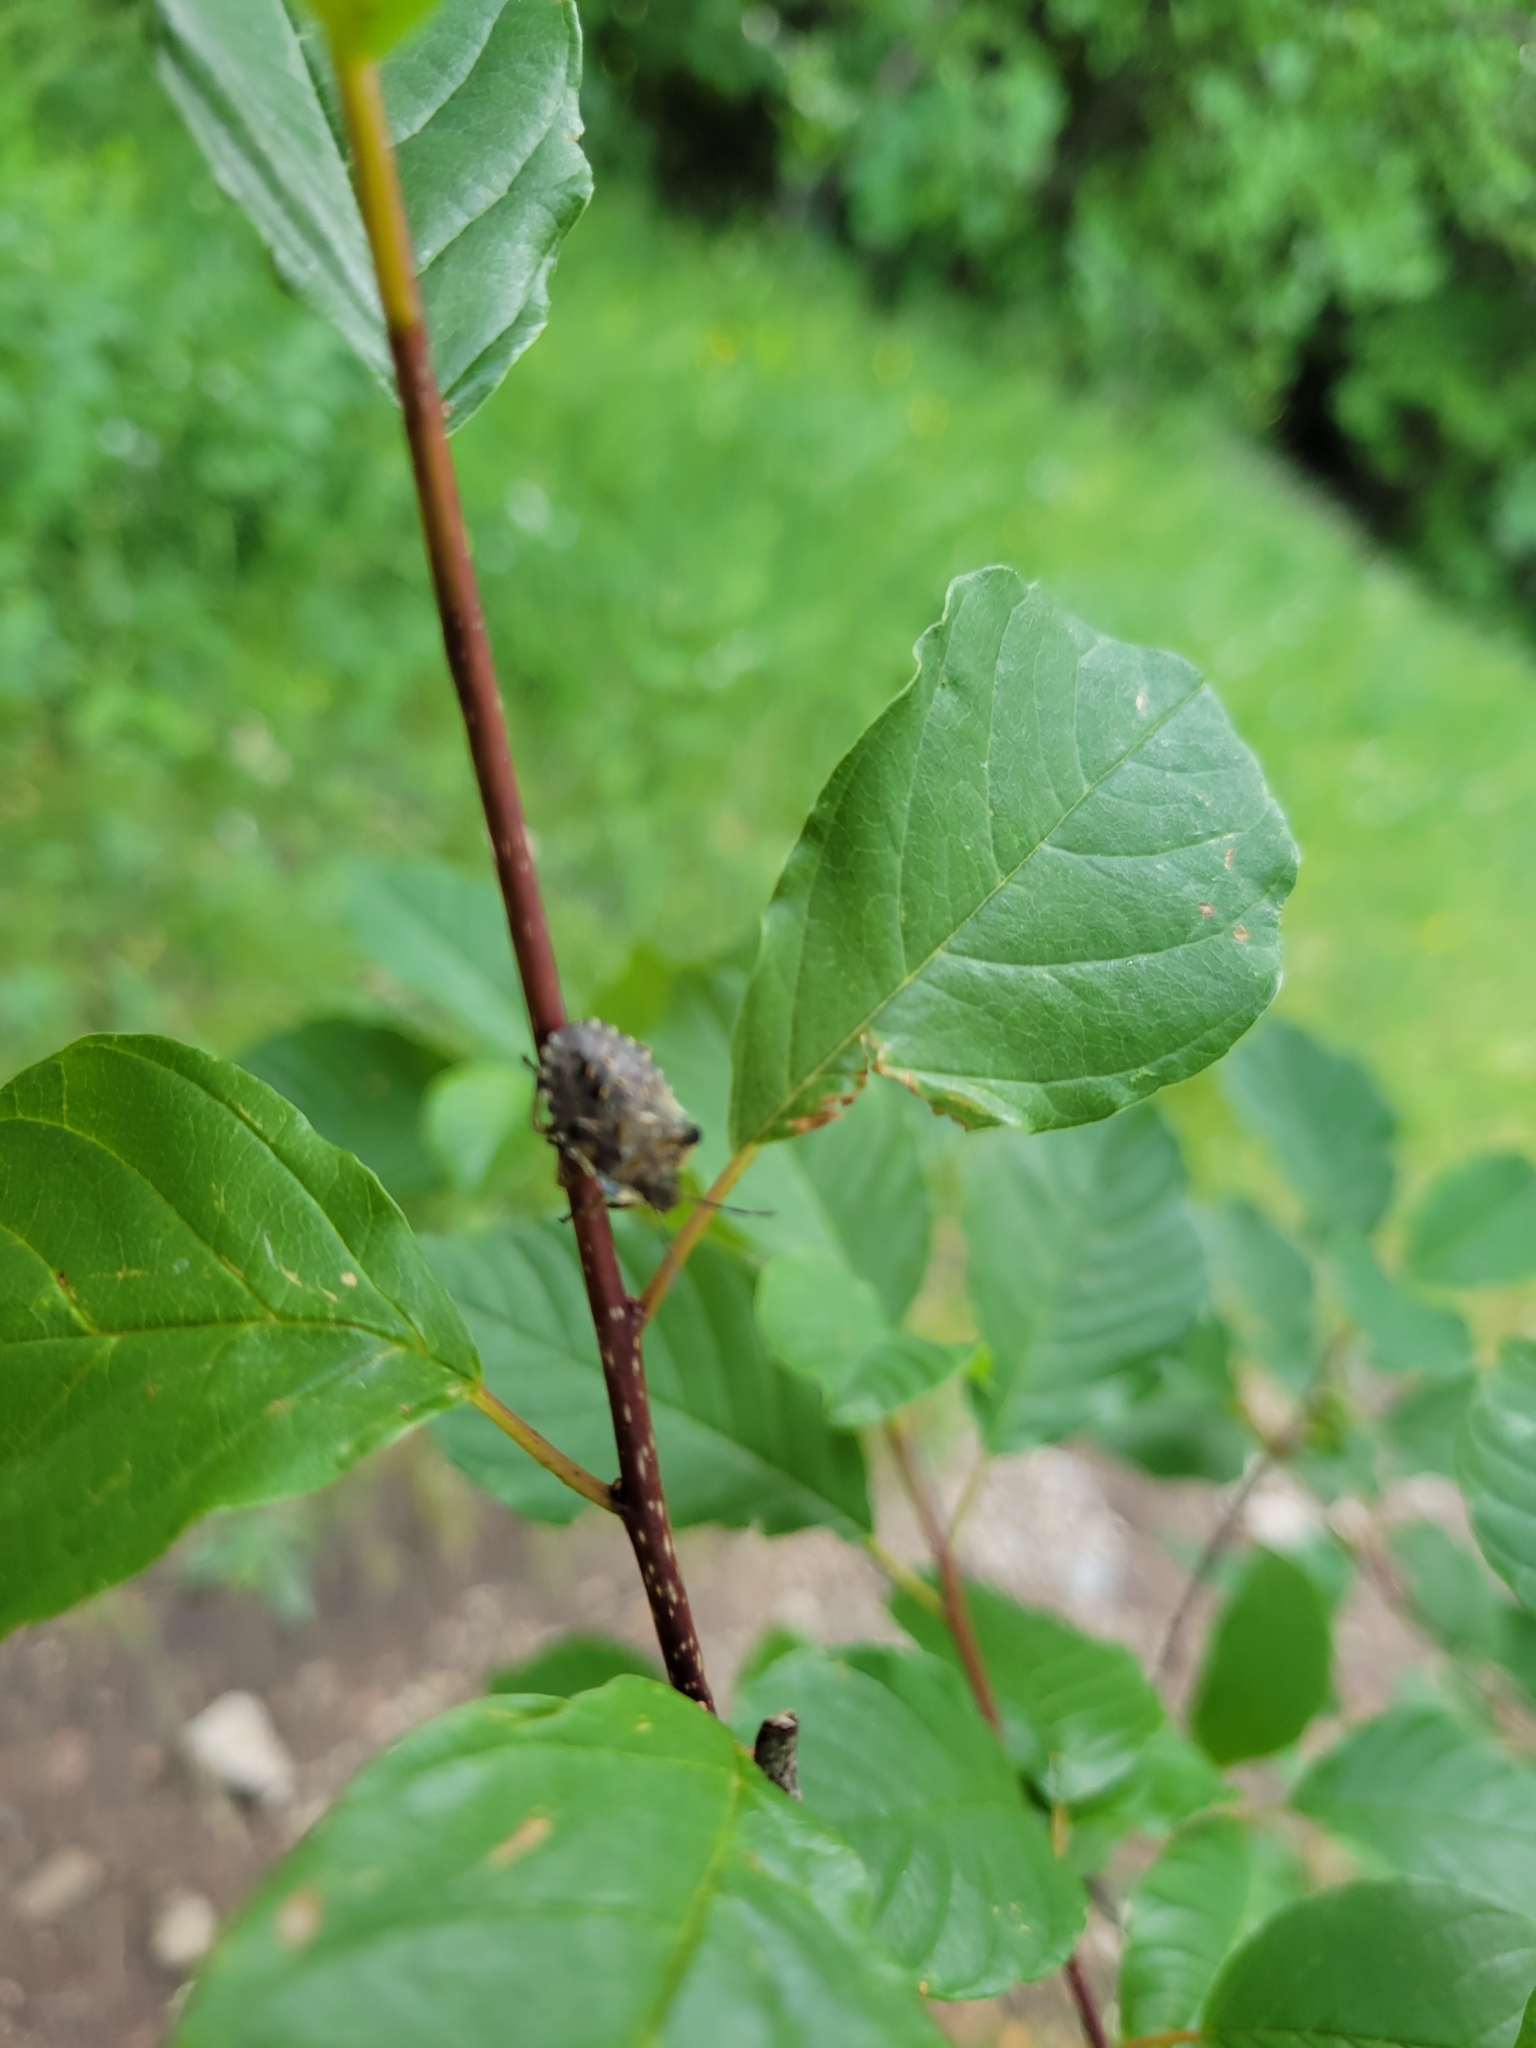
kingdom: Animalia
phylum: Arthropoda
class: Insecta
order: Hemiptera
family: Pentatomidae
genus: Pentatoma
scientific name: Pentatoma rufipes
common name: Forest bug
